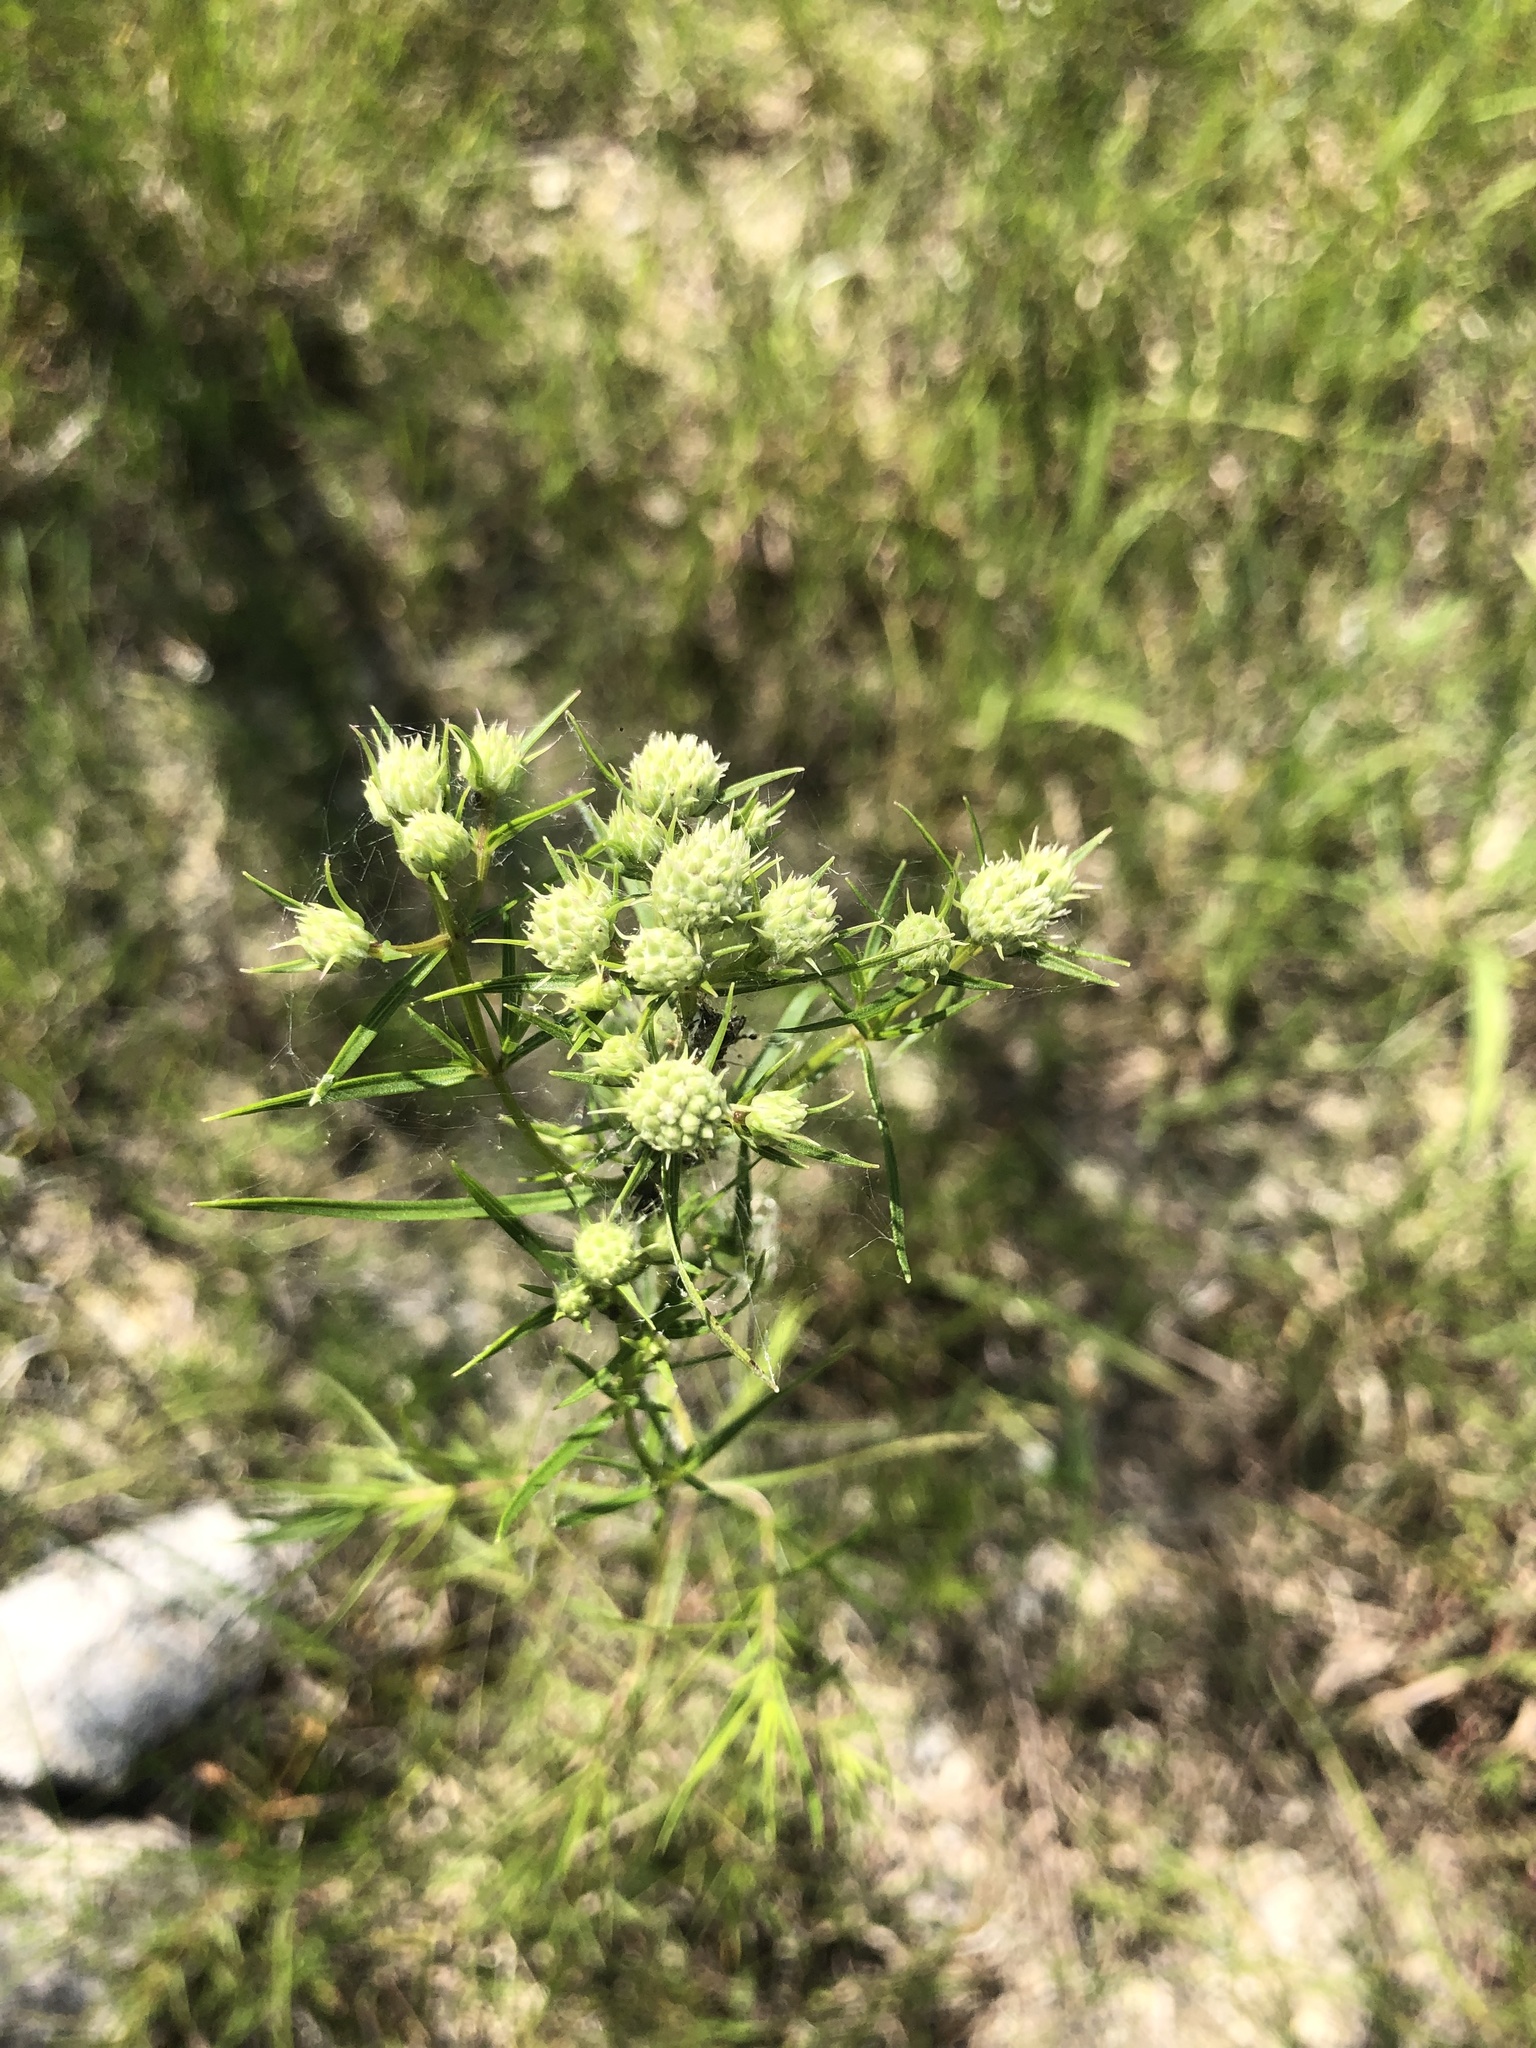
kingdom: Plantae
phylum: Tracheophyta
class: Magnoliopsida
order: Lamiales
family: Lamiaceae
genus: Pycnanthemum
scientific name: Pycnanthemum tenuifolium
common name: Narrow-leaf mountain-mint
